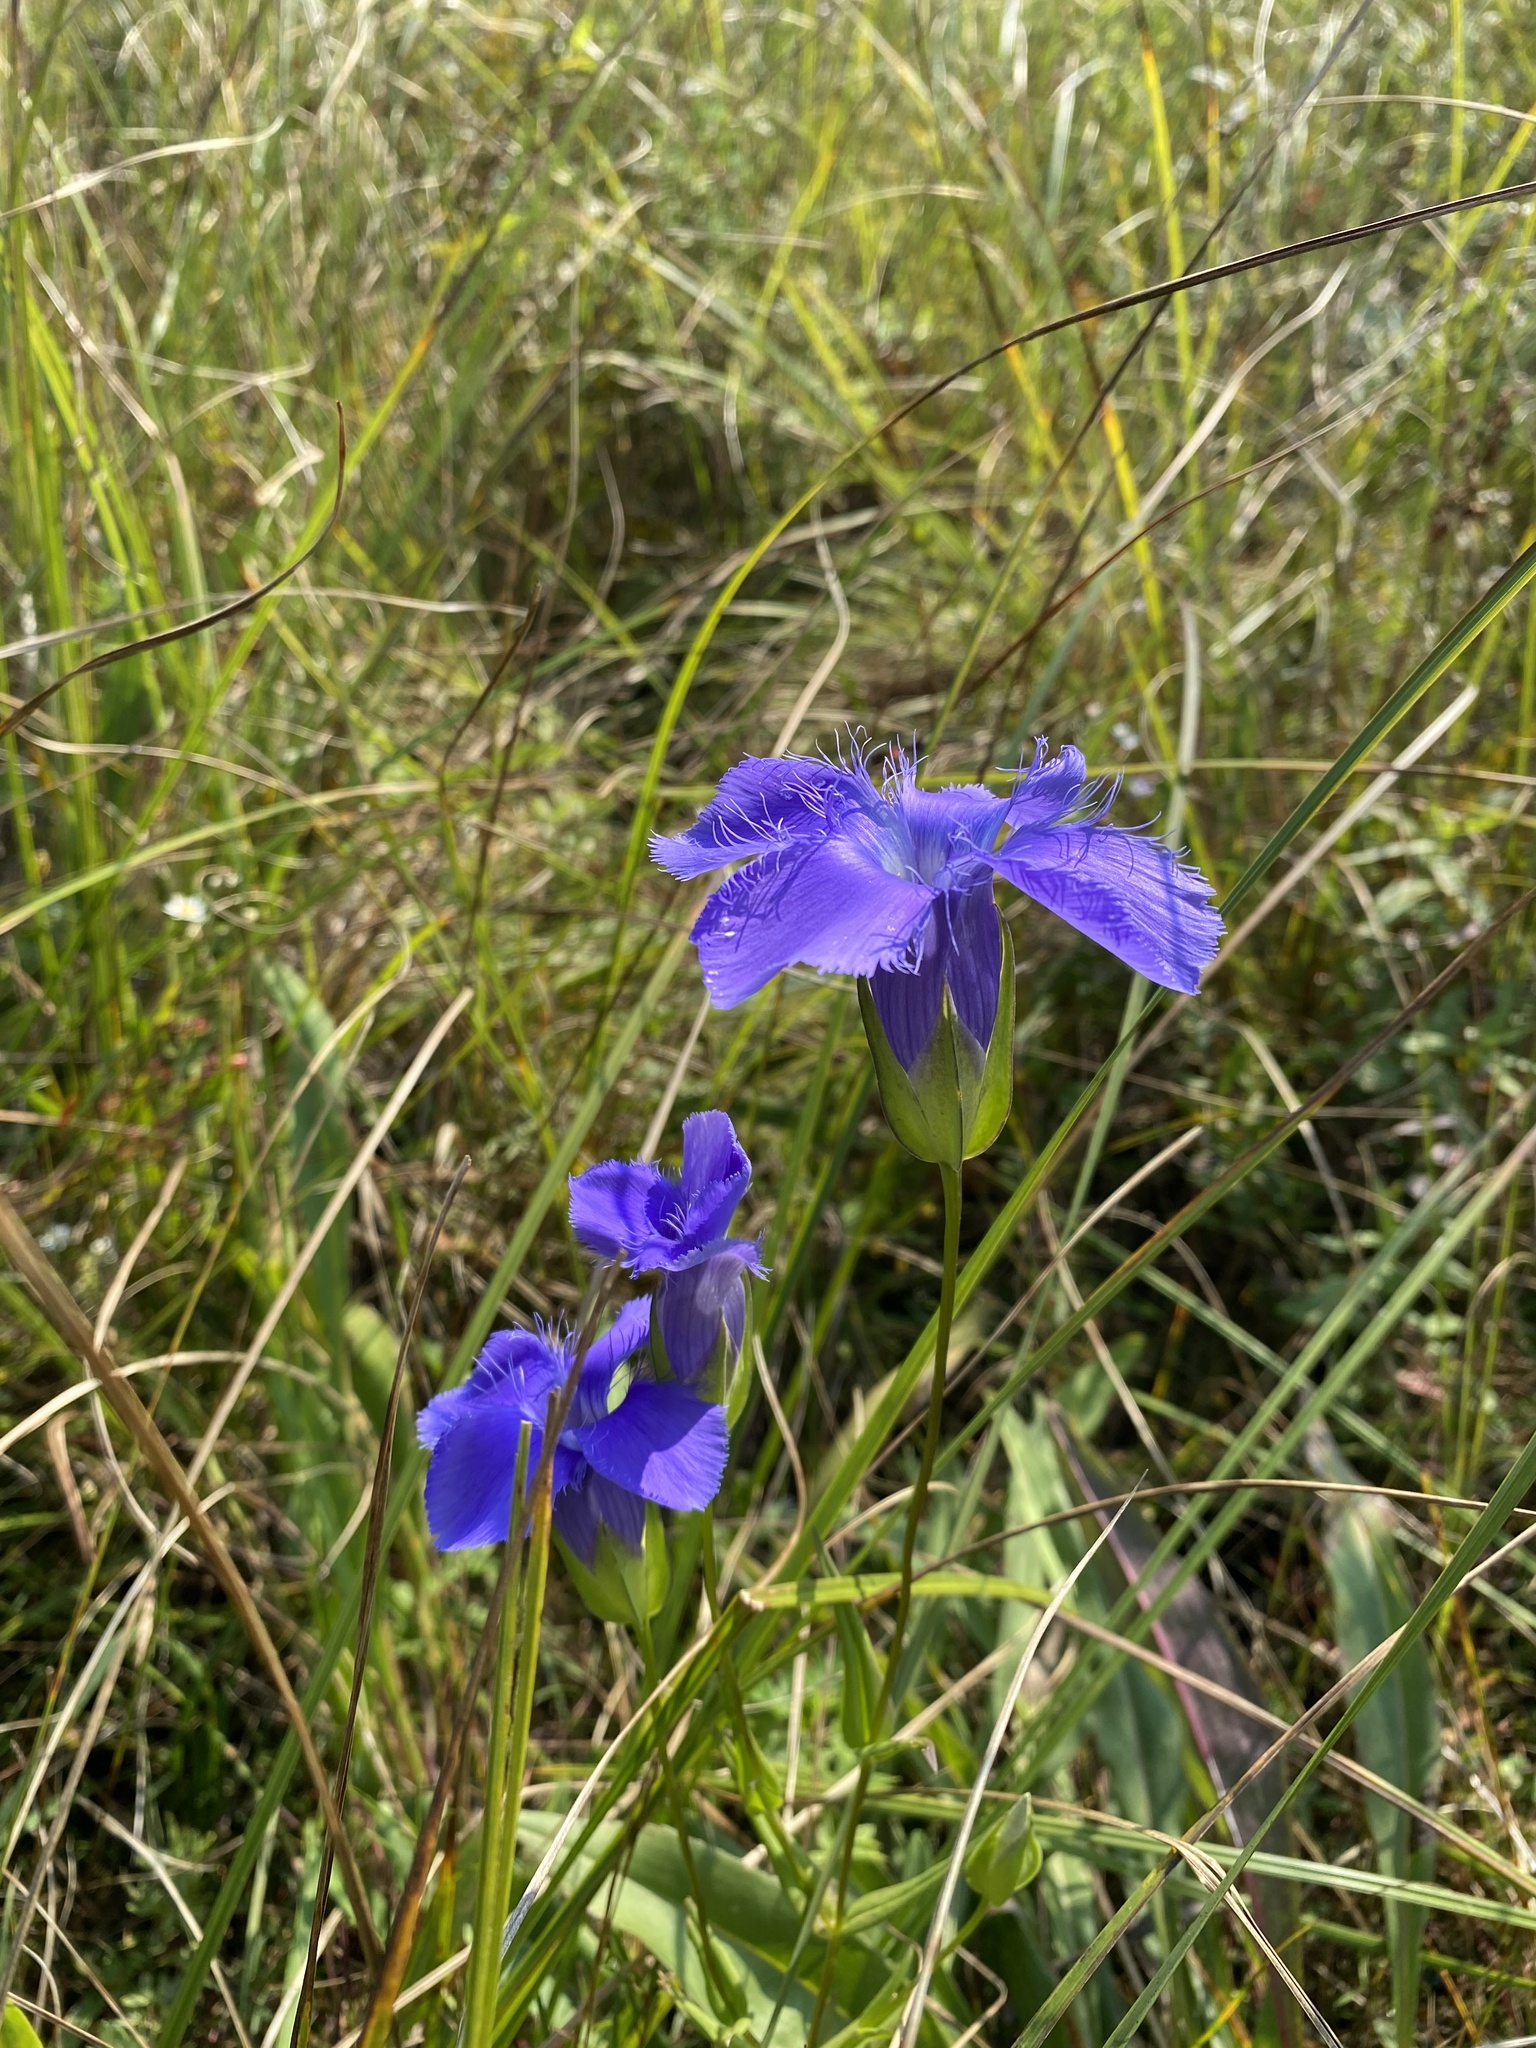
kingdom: Plantae
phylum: Tracheophyta
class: Magnoliopsida
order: Gentianales
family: Gentianaceae
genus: Gentianopsis
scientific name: Gentianopsis virgata
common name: Lesser fringed-gentian
